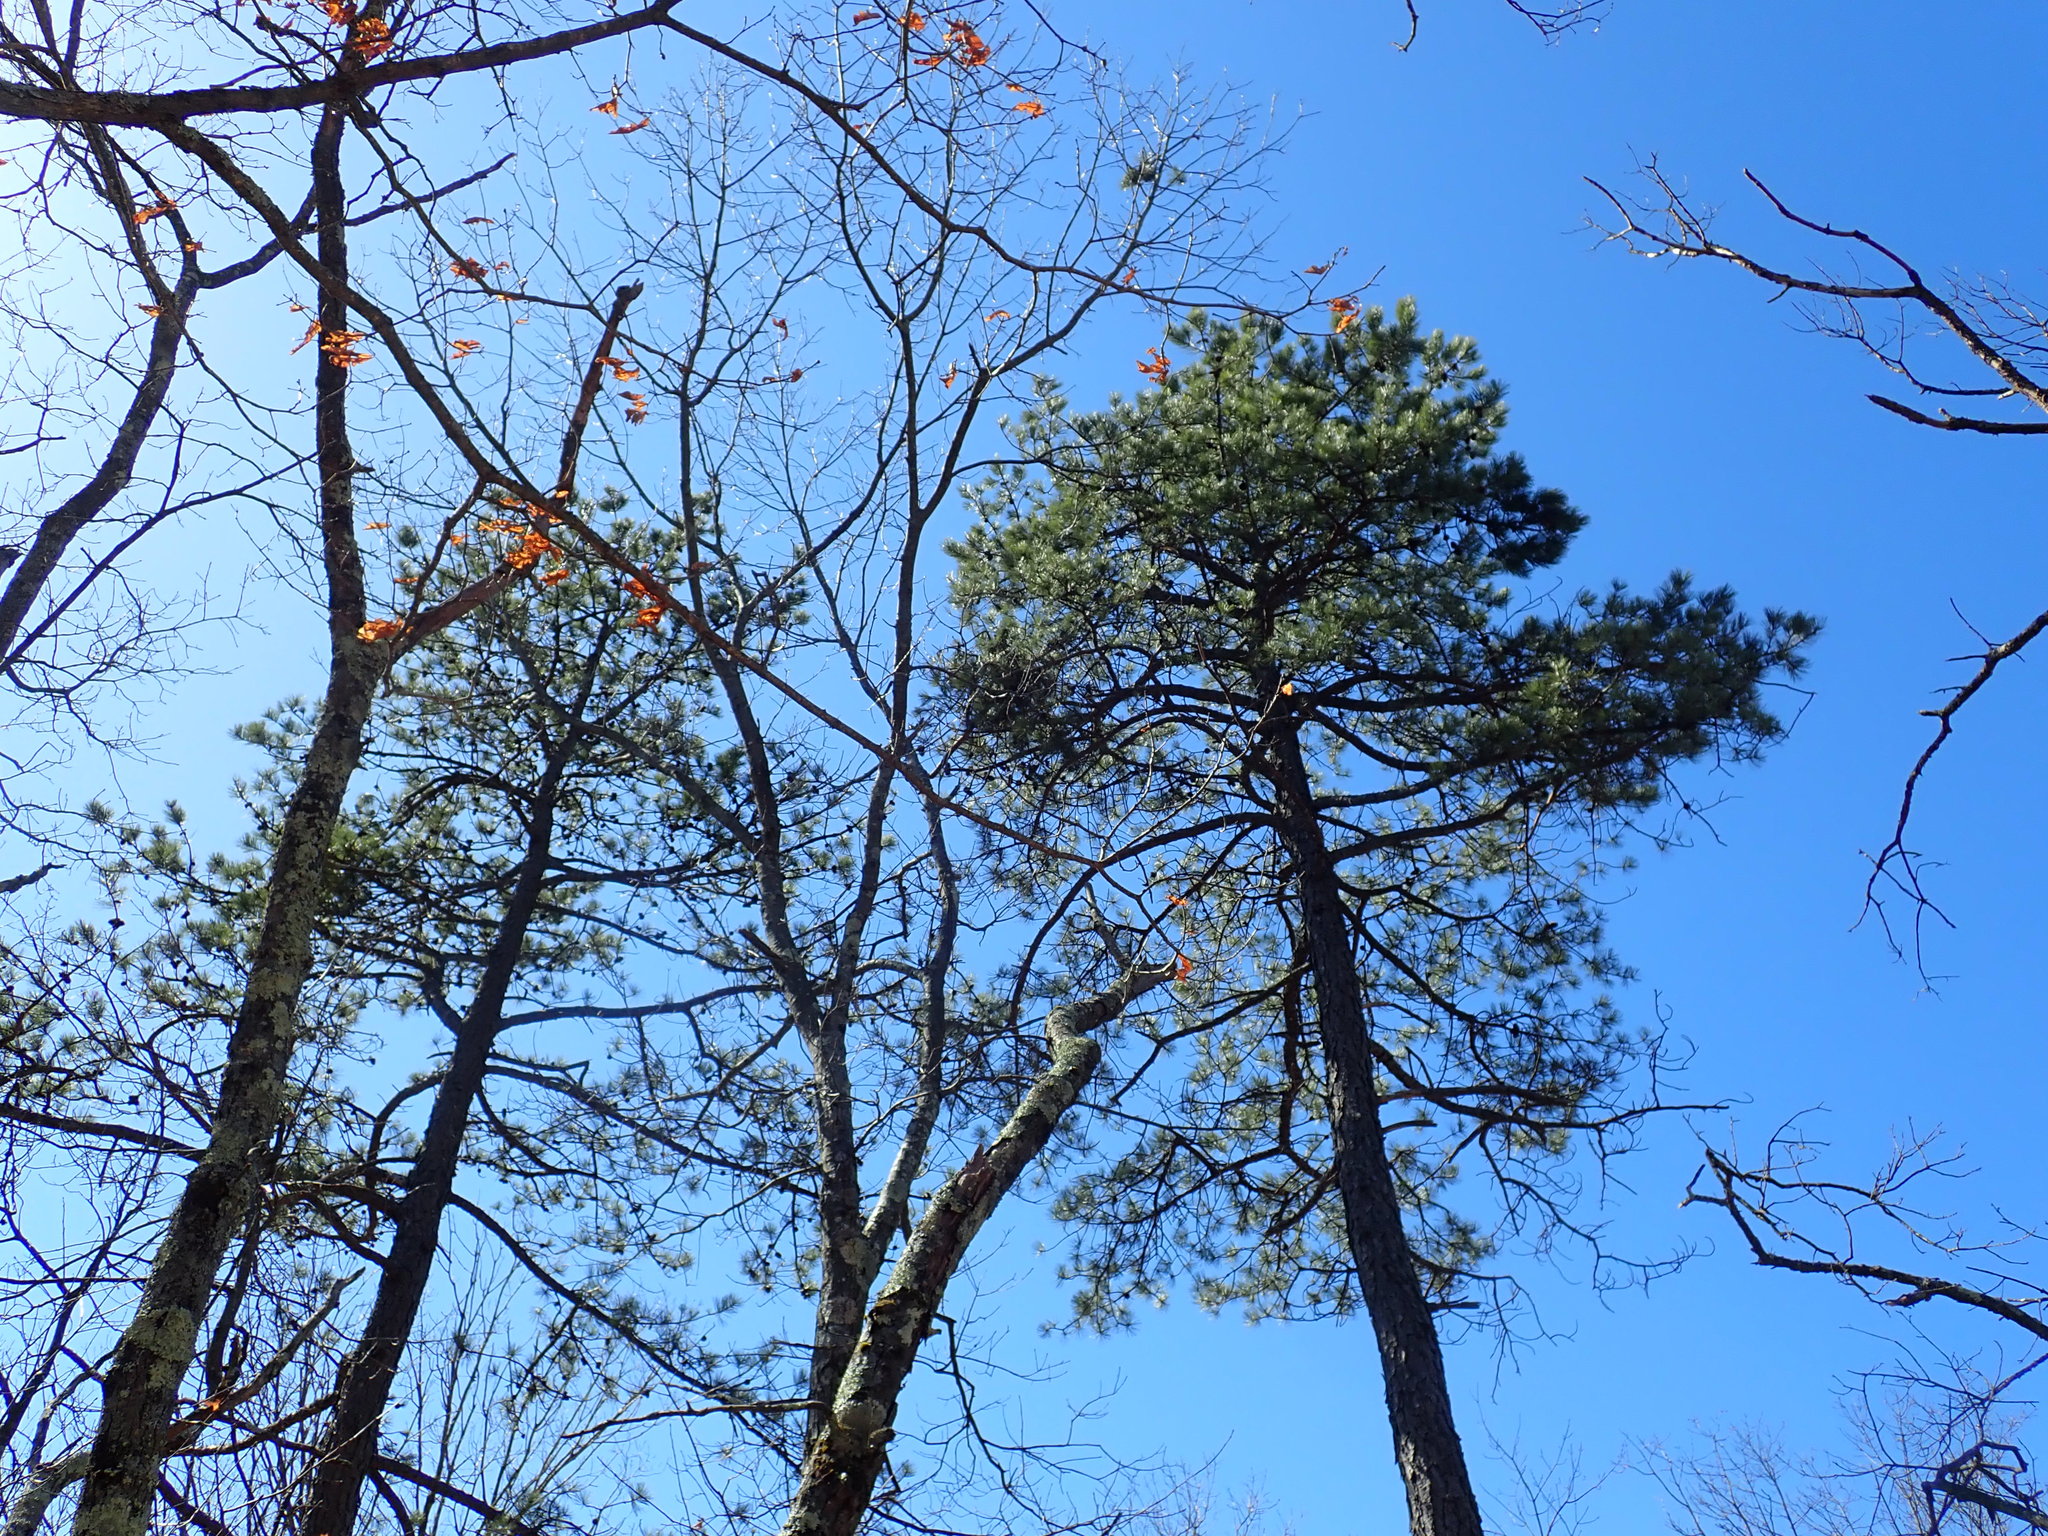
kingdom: Plantae
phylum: Tracheophyta
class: Pinopsida
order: Pinales
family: Pinaceae
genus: Pinus
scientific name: Pinus rigida
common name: Pitch pine
